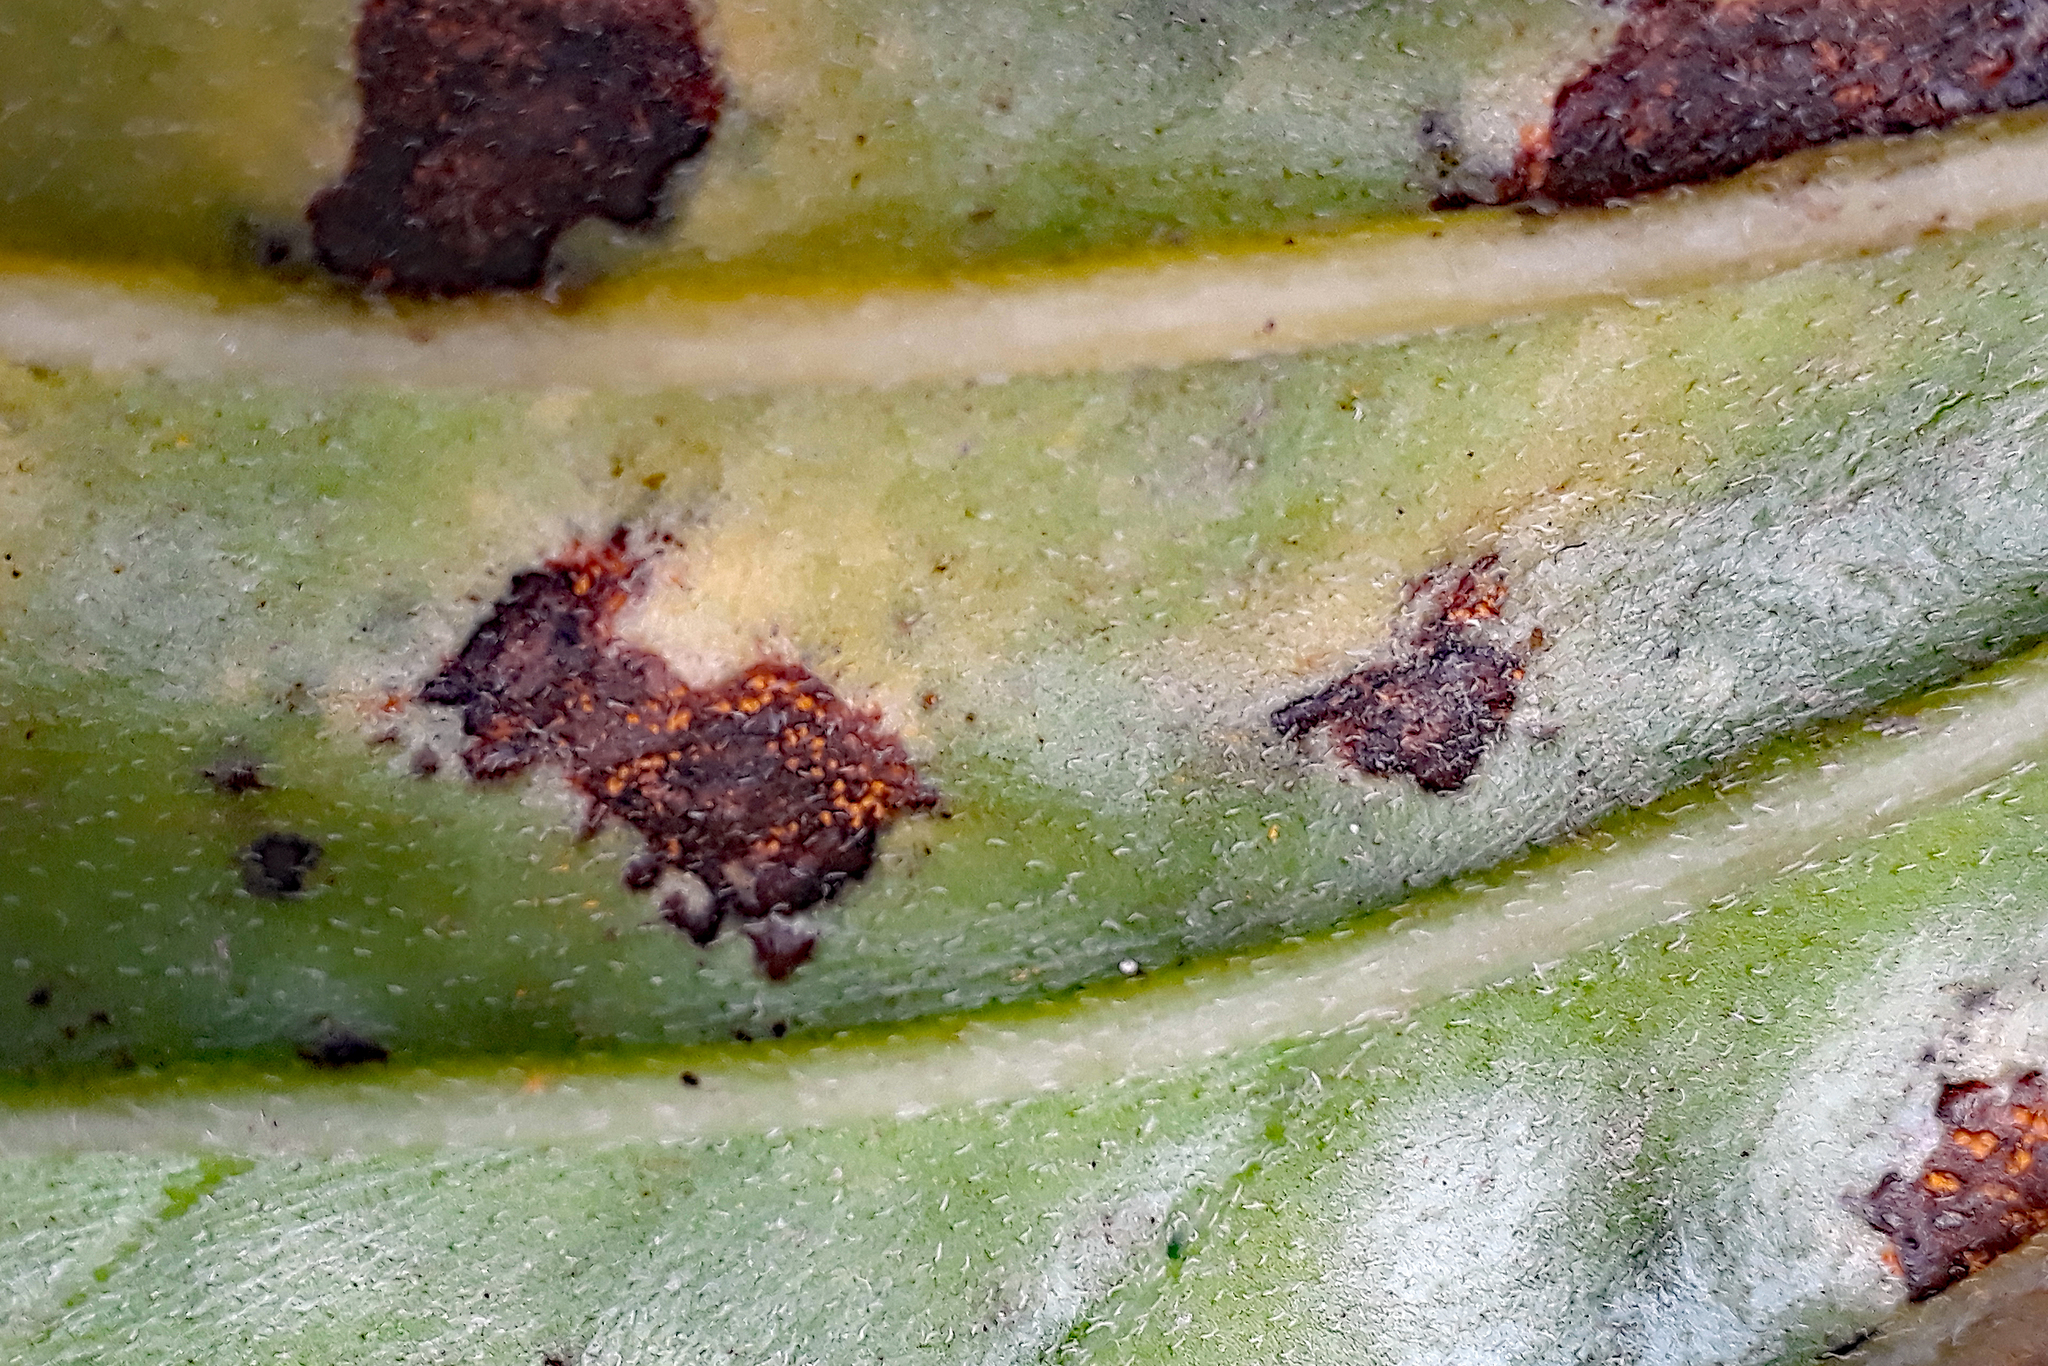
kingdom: Fungi
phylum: Basidiomycota
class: Pucciniomycetes
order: Pucciniales
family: Pucciniastraceae
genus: Pucciniastrum
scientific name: Pucciniastrum myosotidii
